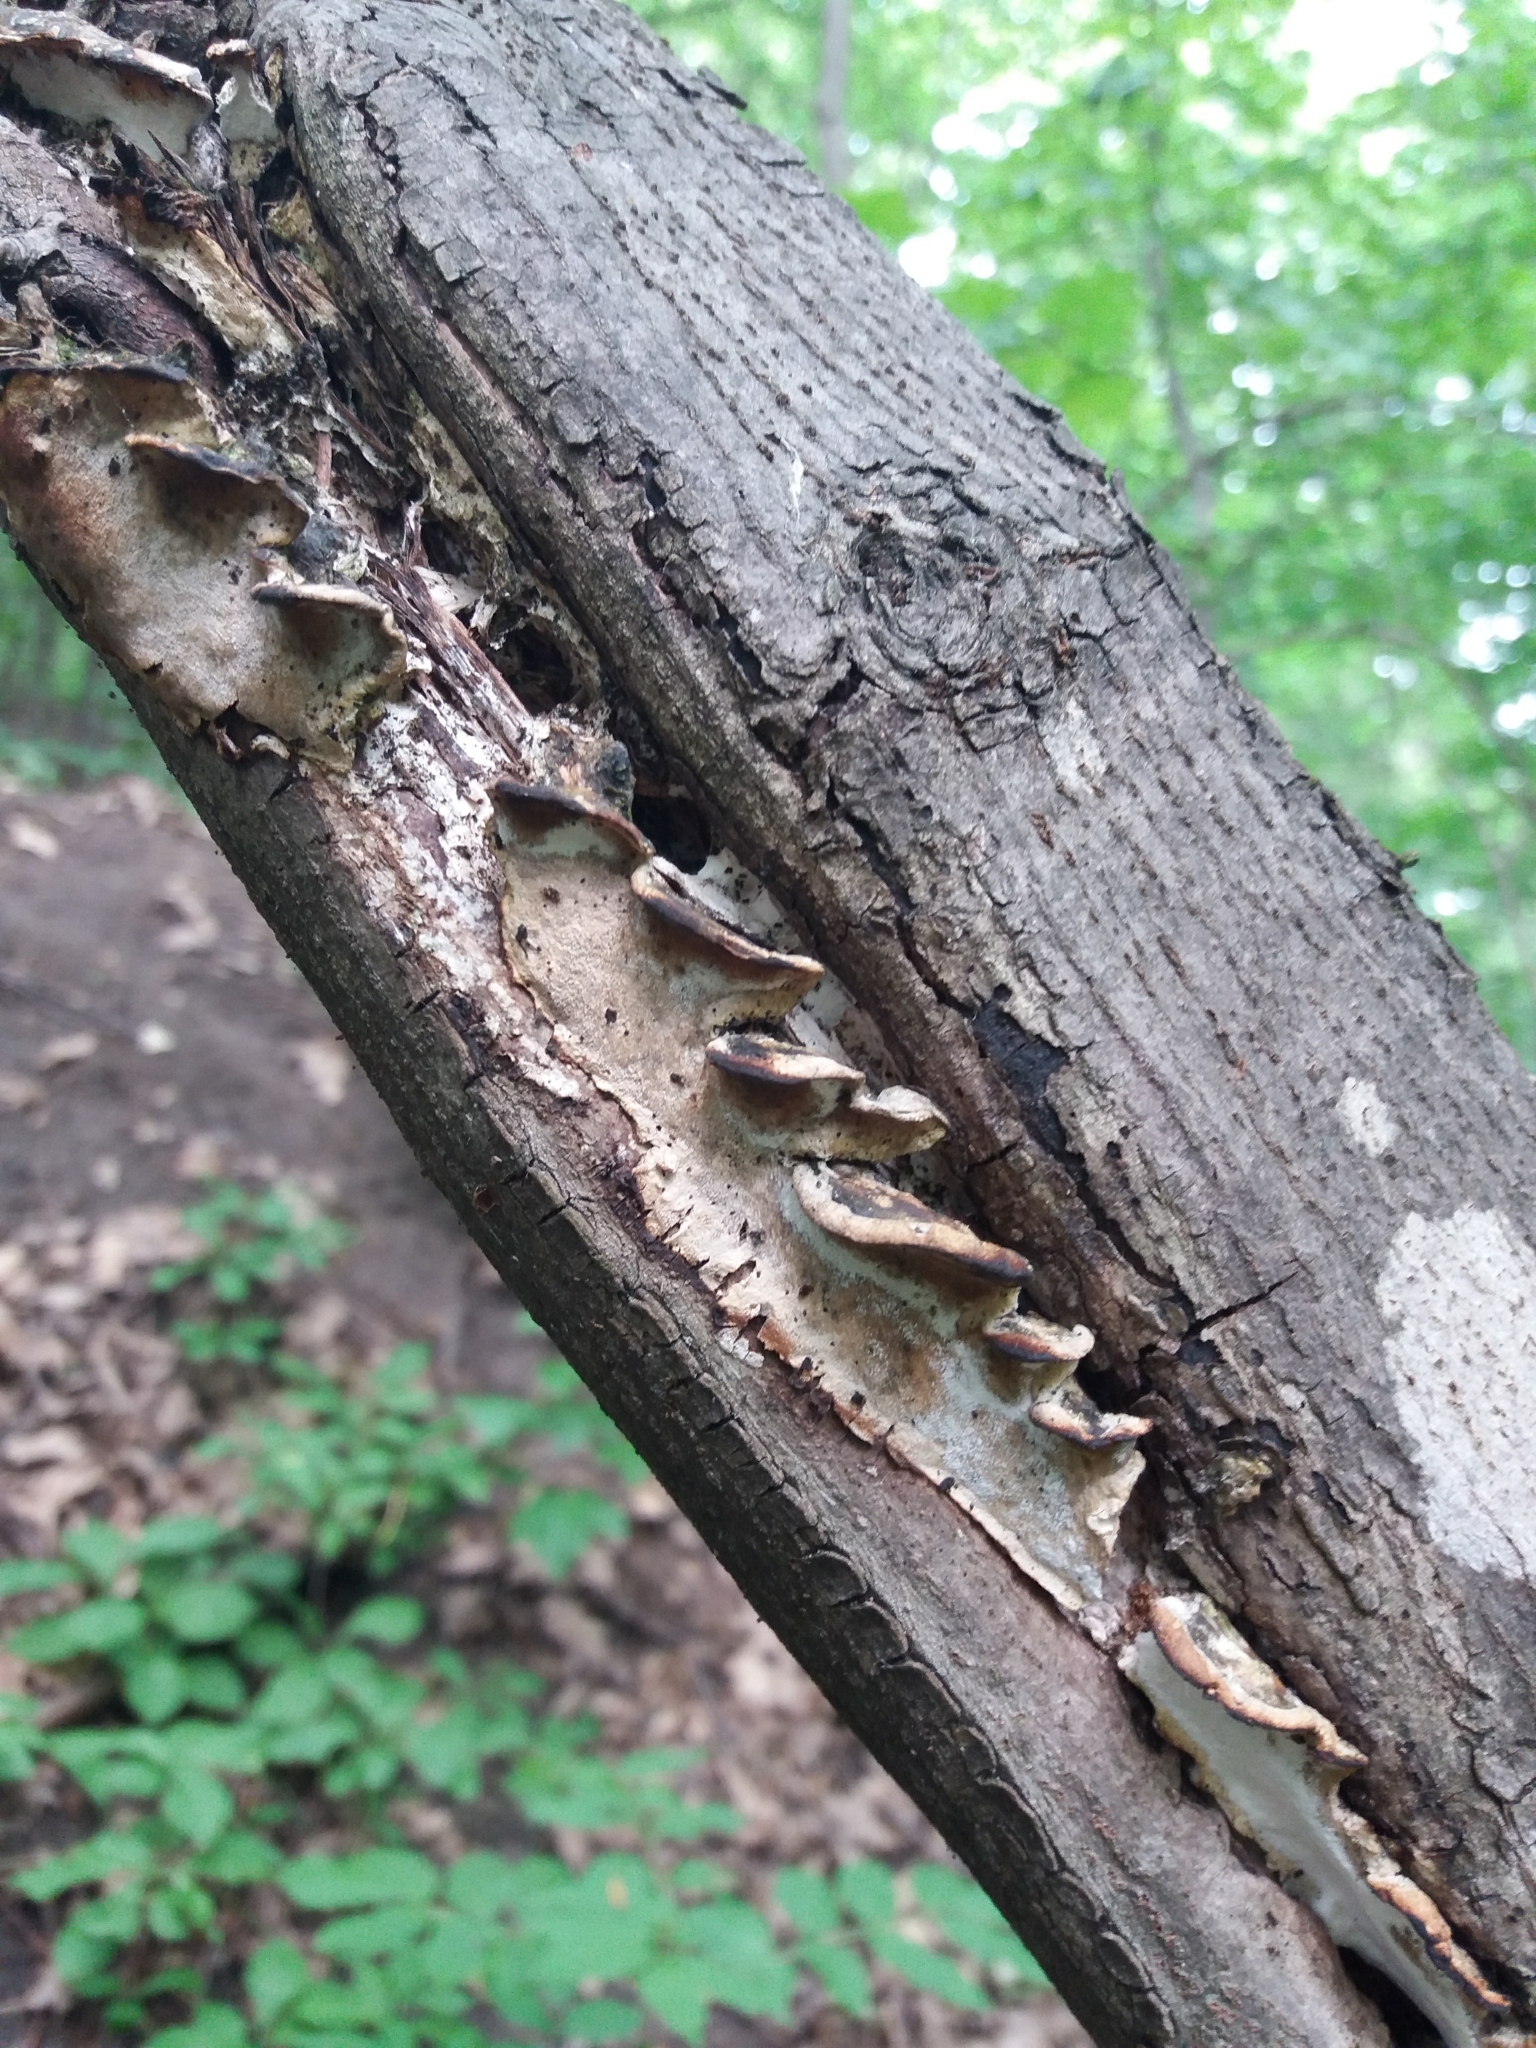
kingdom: Fungi
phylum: Basidiomycota
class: Agaricomycetes
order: Hymenochaetales
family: Oxyporaceae
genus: Oxyporus
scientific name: Oxyporus populinus
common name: Poplar bracket
